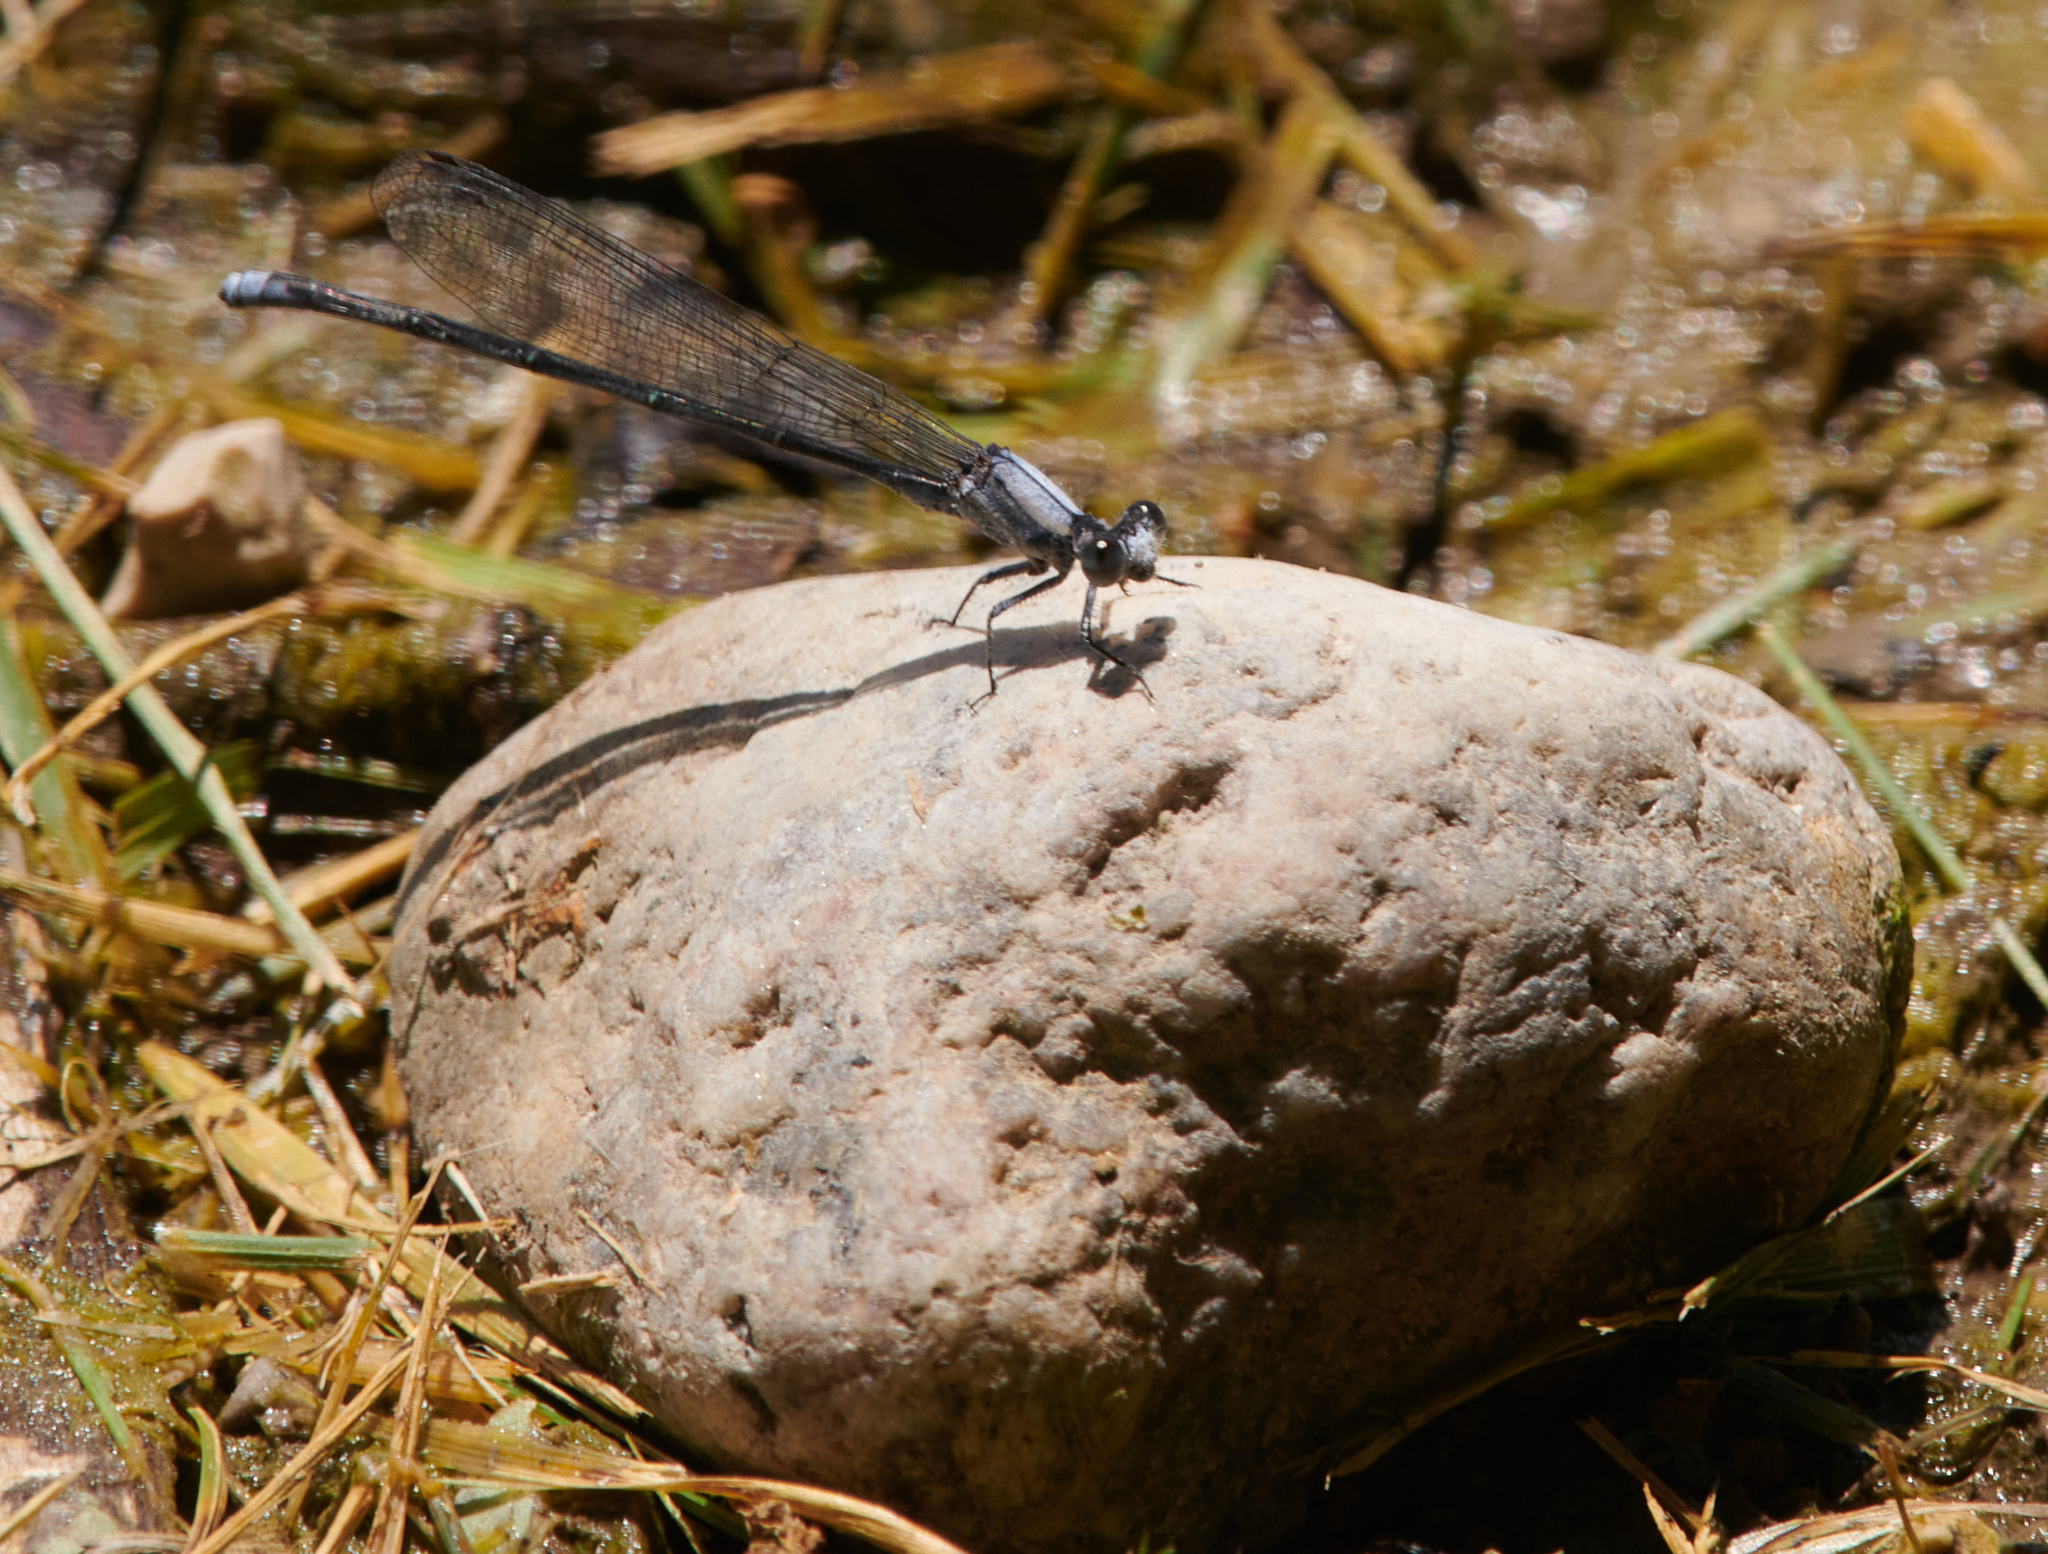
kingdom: Animalia
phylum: Arthropoda
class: Insecta
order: Odonata
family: Coenagrionidae
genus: Argia
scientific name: Argia moesta
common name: Powdered dancer
